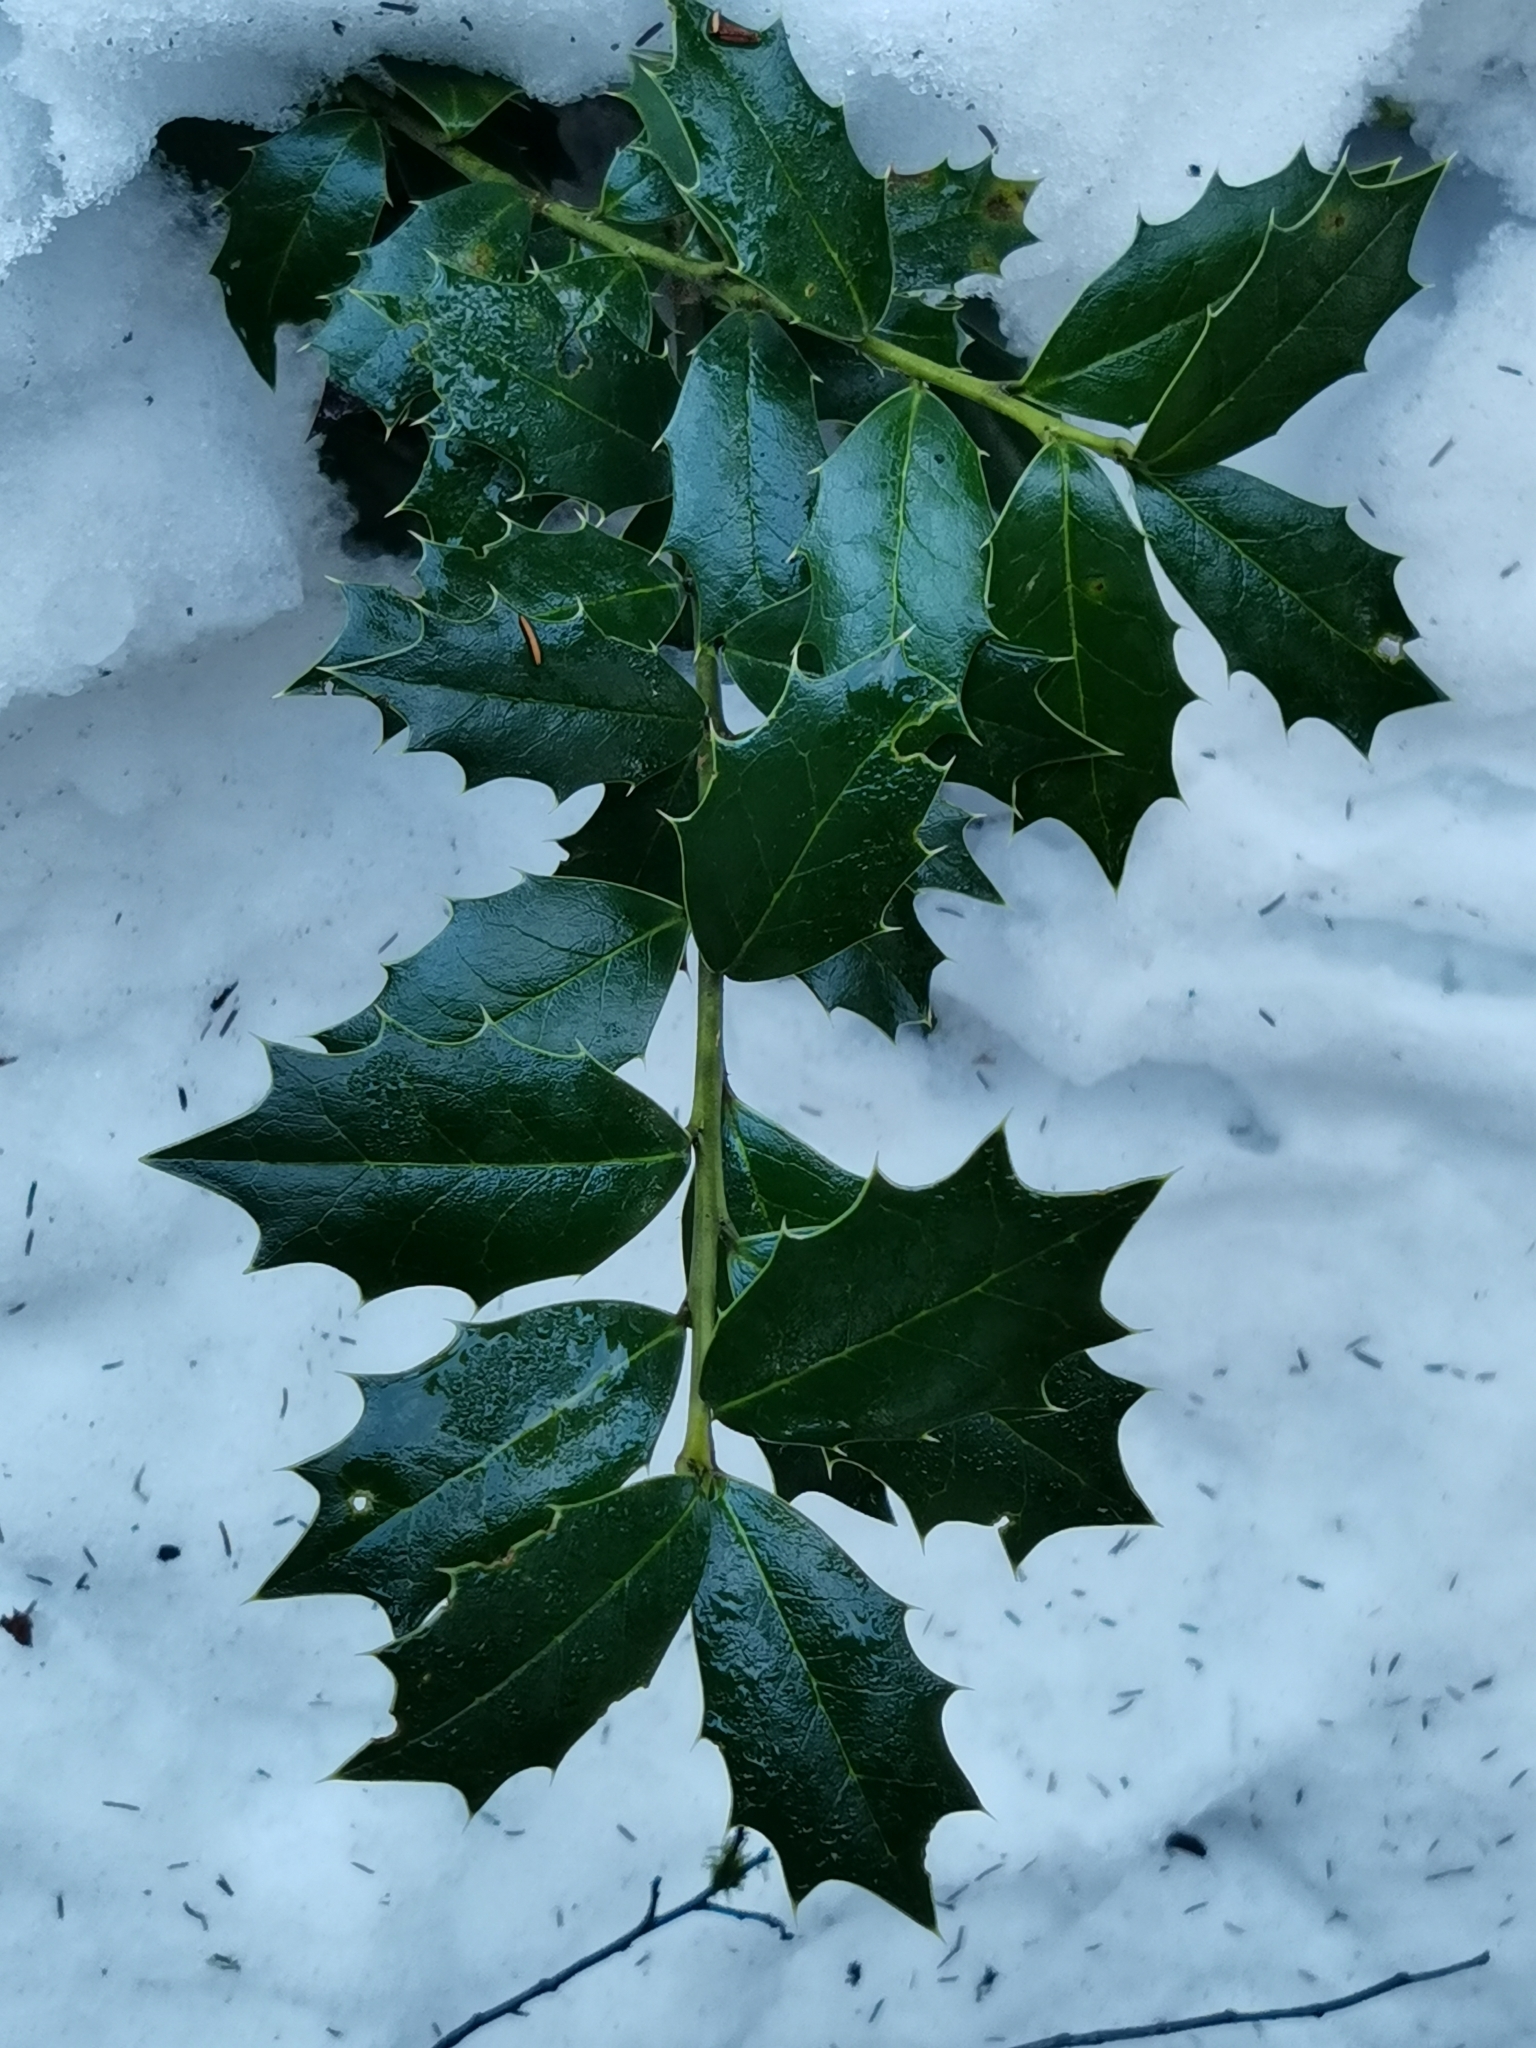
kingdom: Plantae
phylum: Tracheophyta
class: Magnoliopsida
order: Aquifoliales
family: Aquifoliaceae
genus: Ilex
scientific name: Ilex colchica
